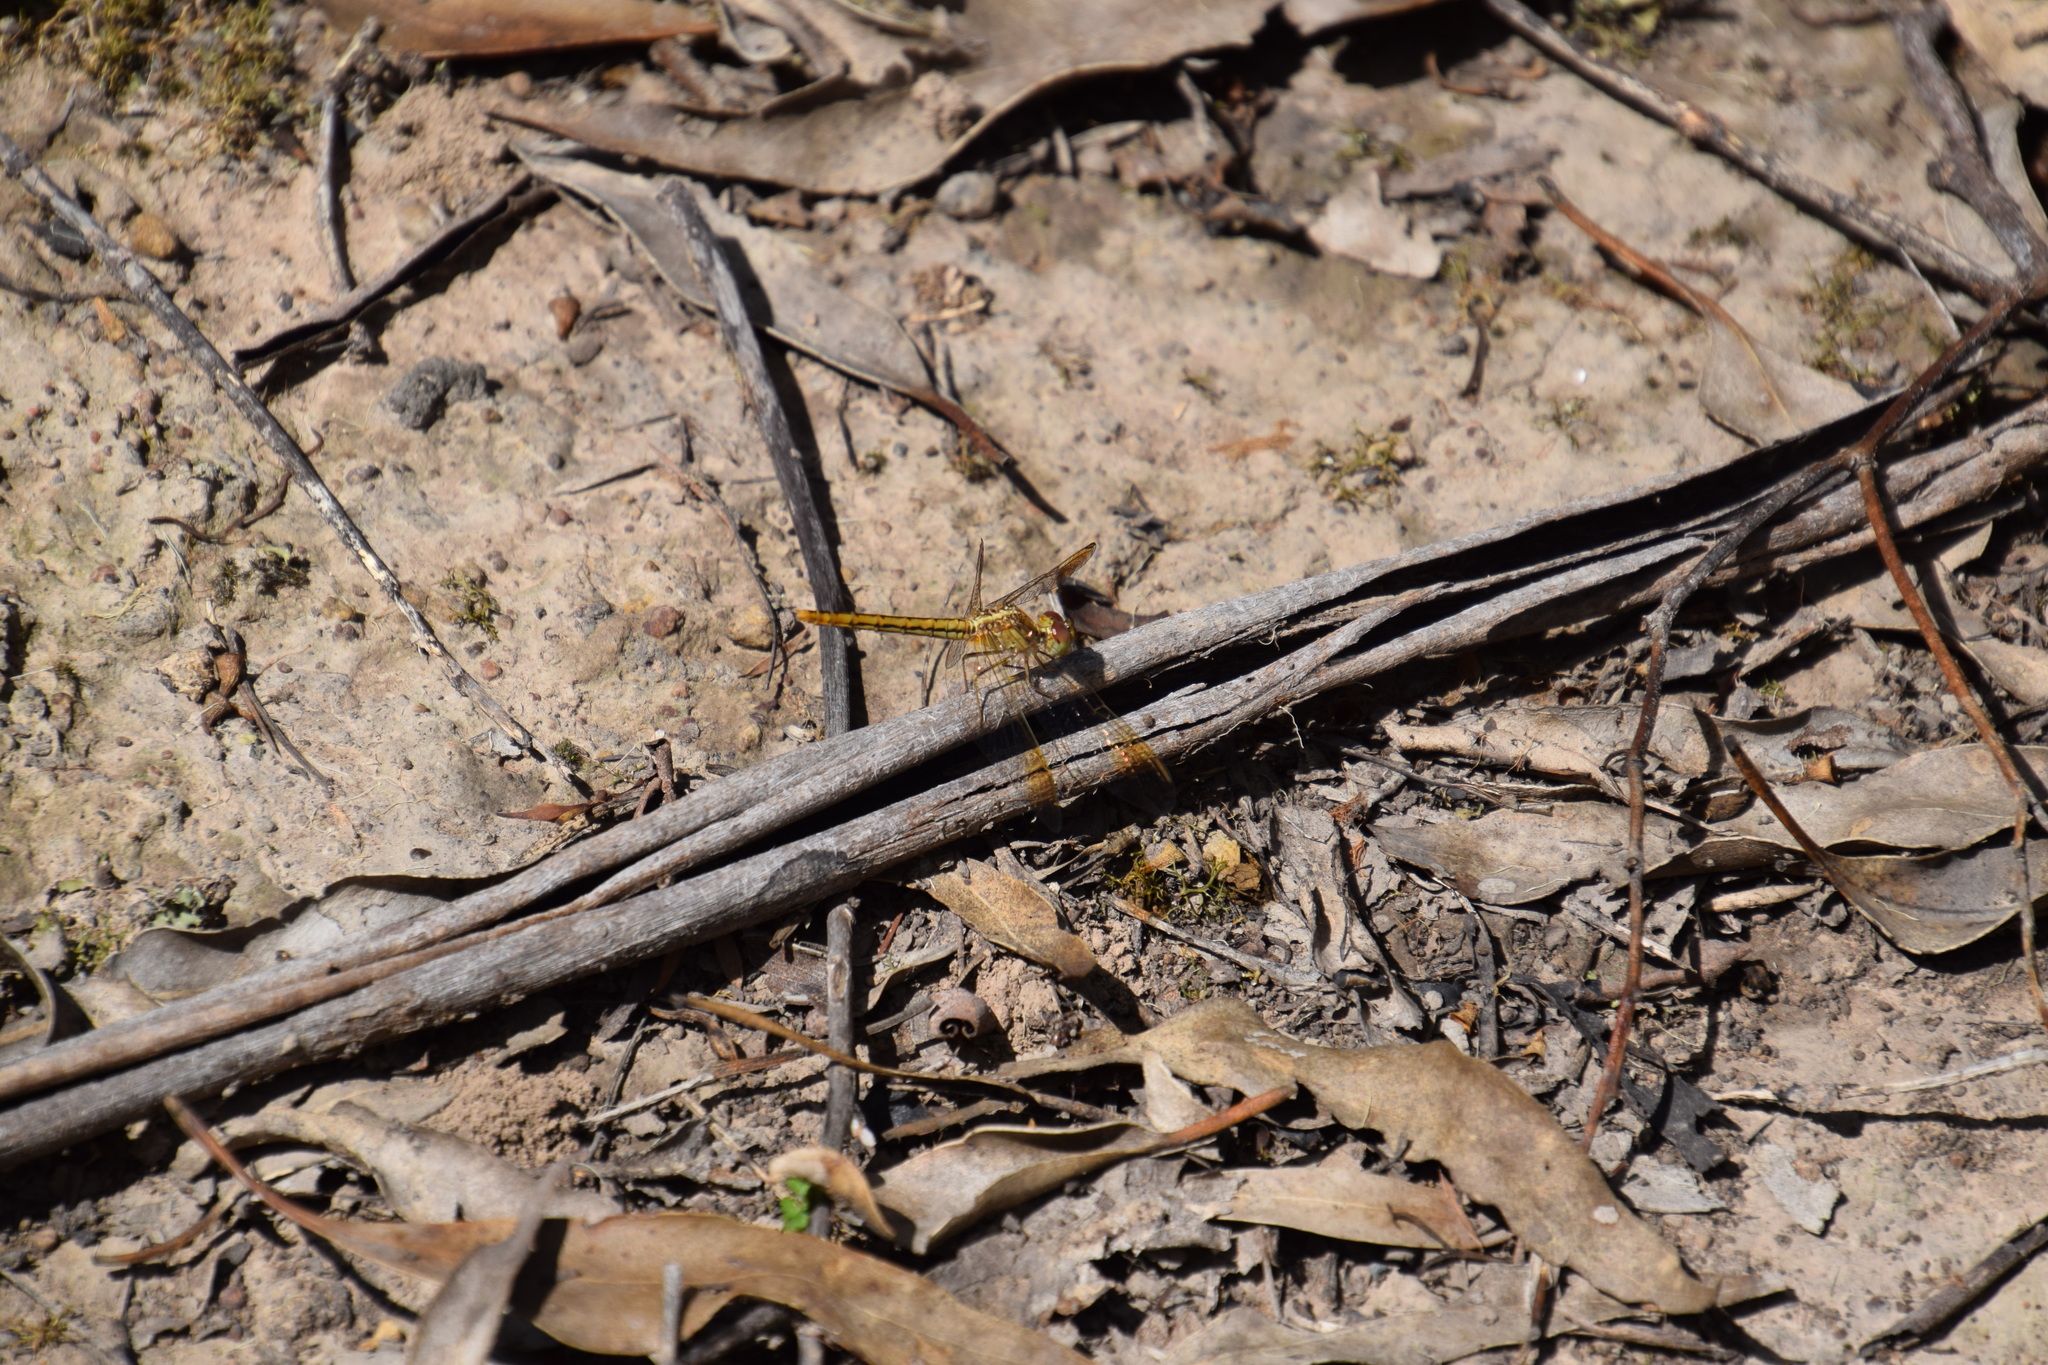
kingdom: Animalia
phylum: Arthropoda
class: Insecta
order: Odonata
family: Libellulidae
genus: Diplacodes
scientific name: Diplacodes haematodes
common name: Scarlet percher
